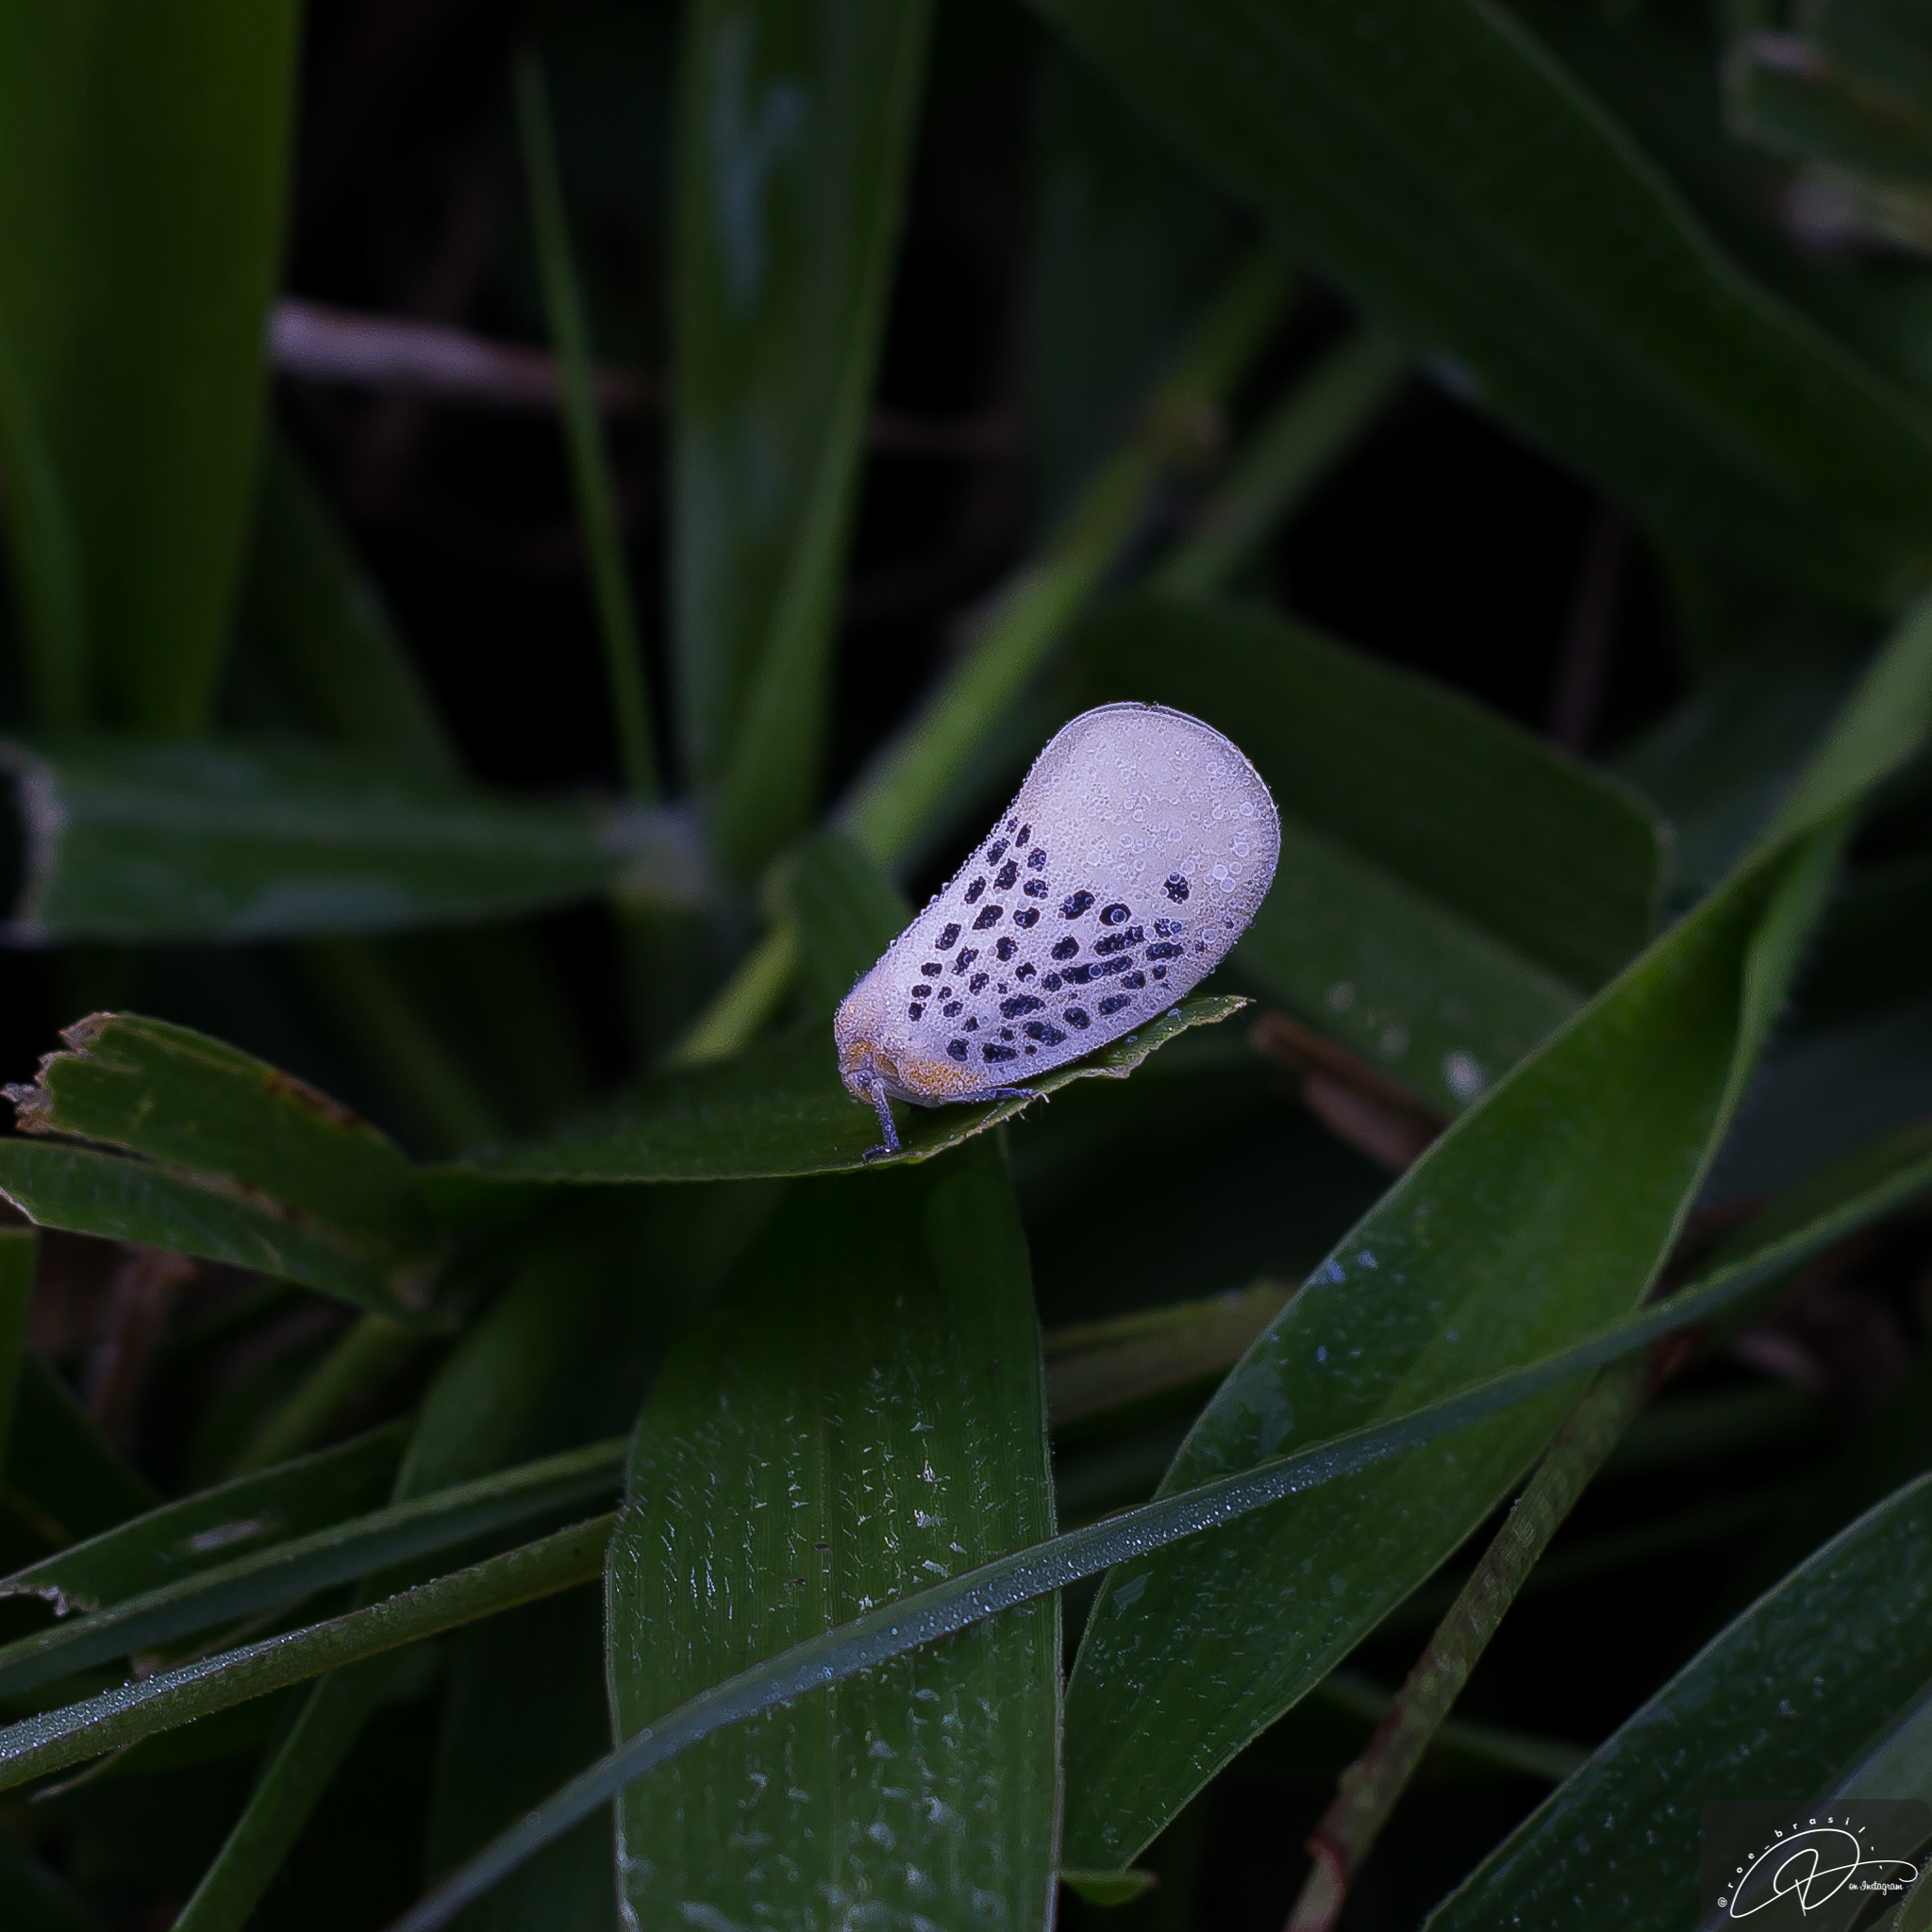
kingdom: Animalia
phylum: Arthropoda
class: Insecta
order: Hemiptera
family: Flatidae
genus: Poekilloptera
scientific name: Poekilloptera phalaenoides
